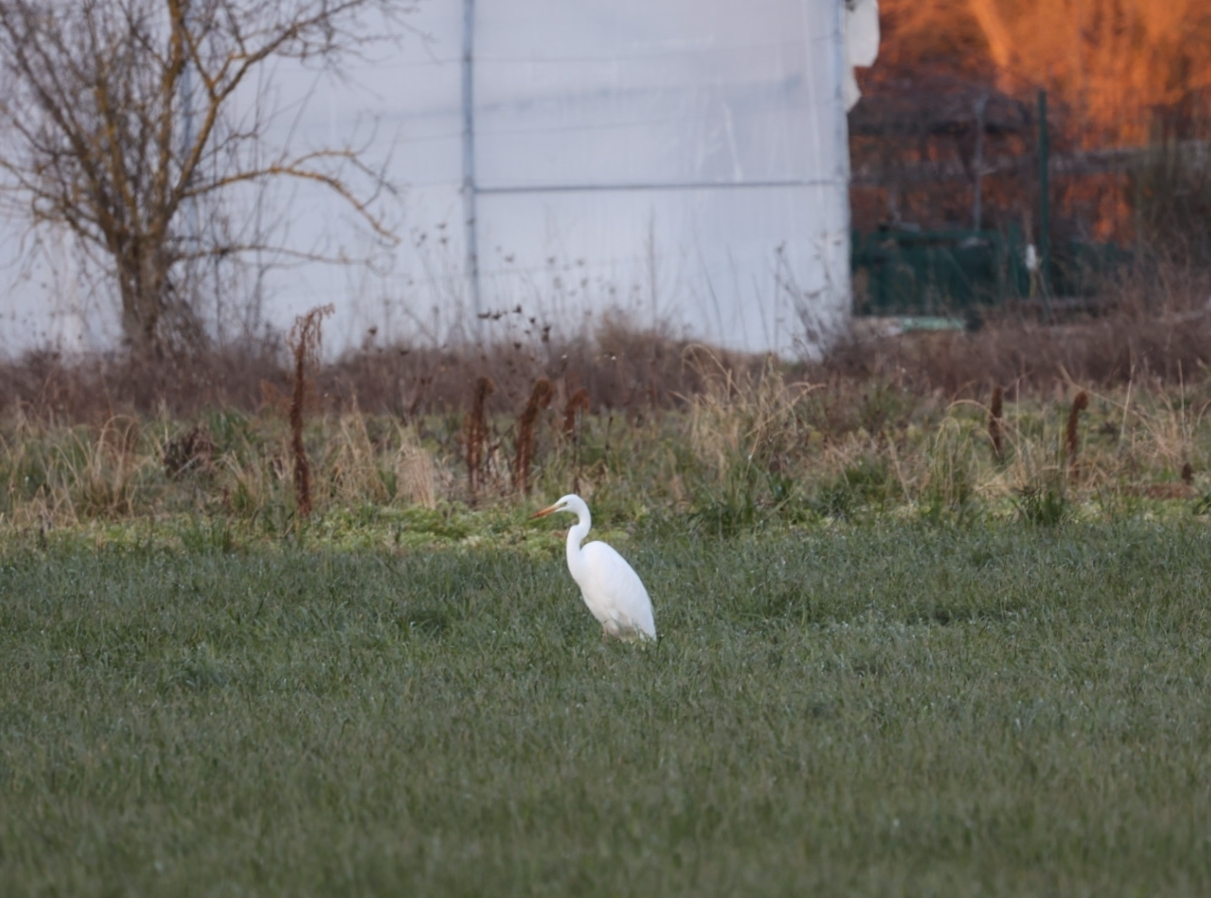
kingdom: Animalia
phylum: Chordata
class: Aves
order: Pelecaniformes
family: Ardeidae
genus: Ardea
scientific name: Ardea alba
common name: Great egret
